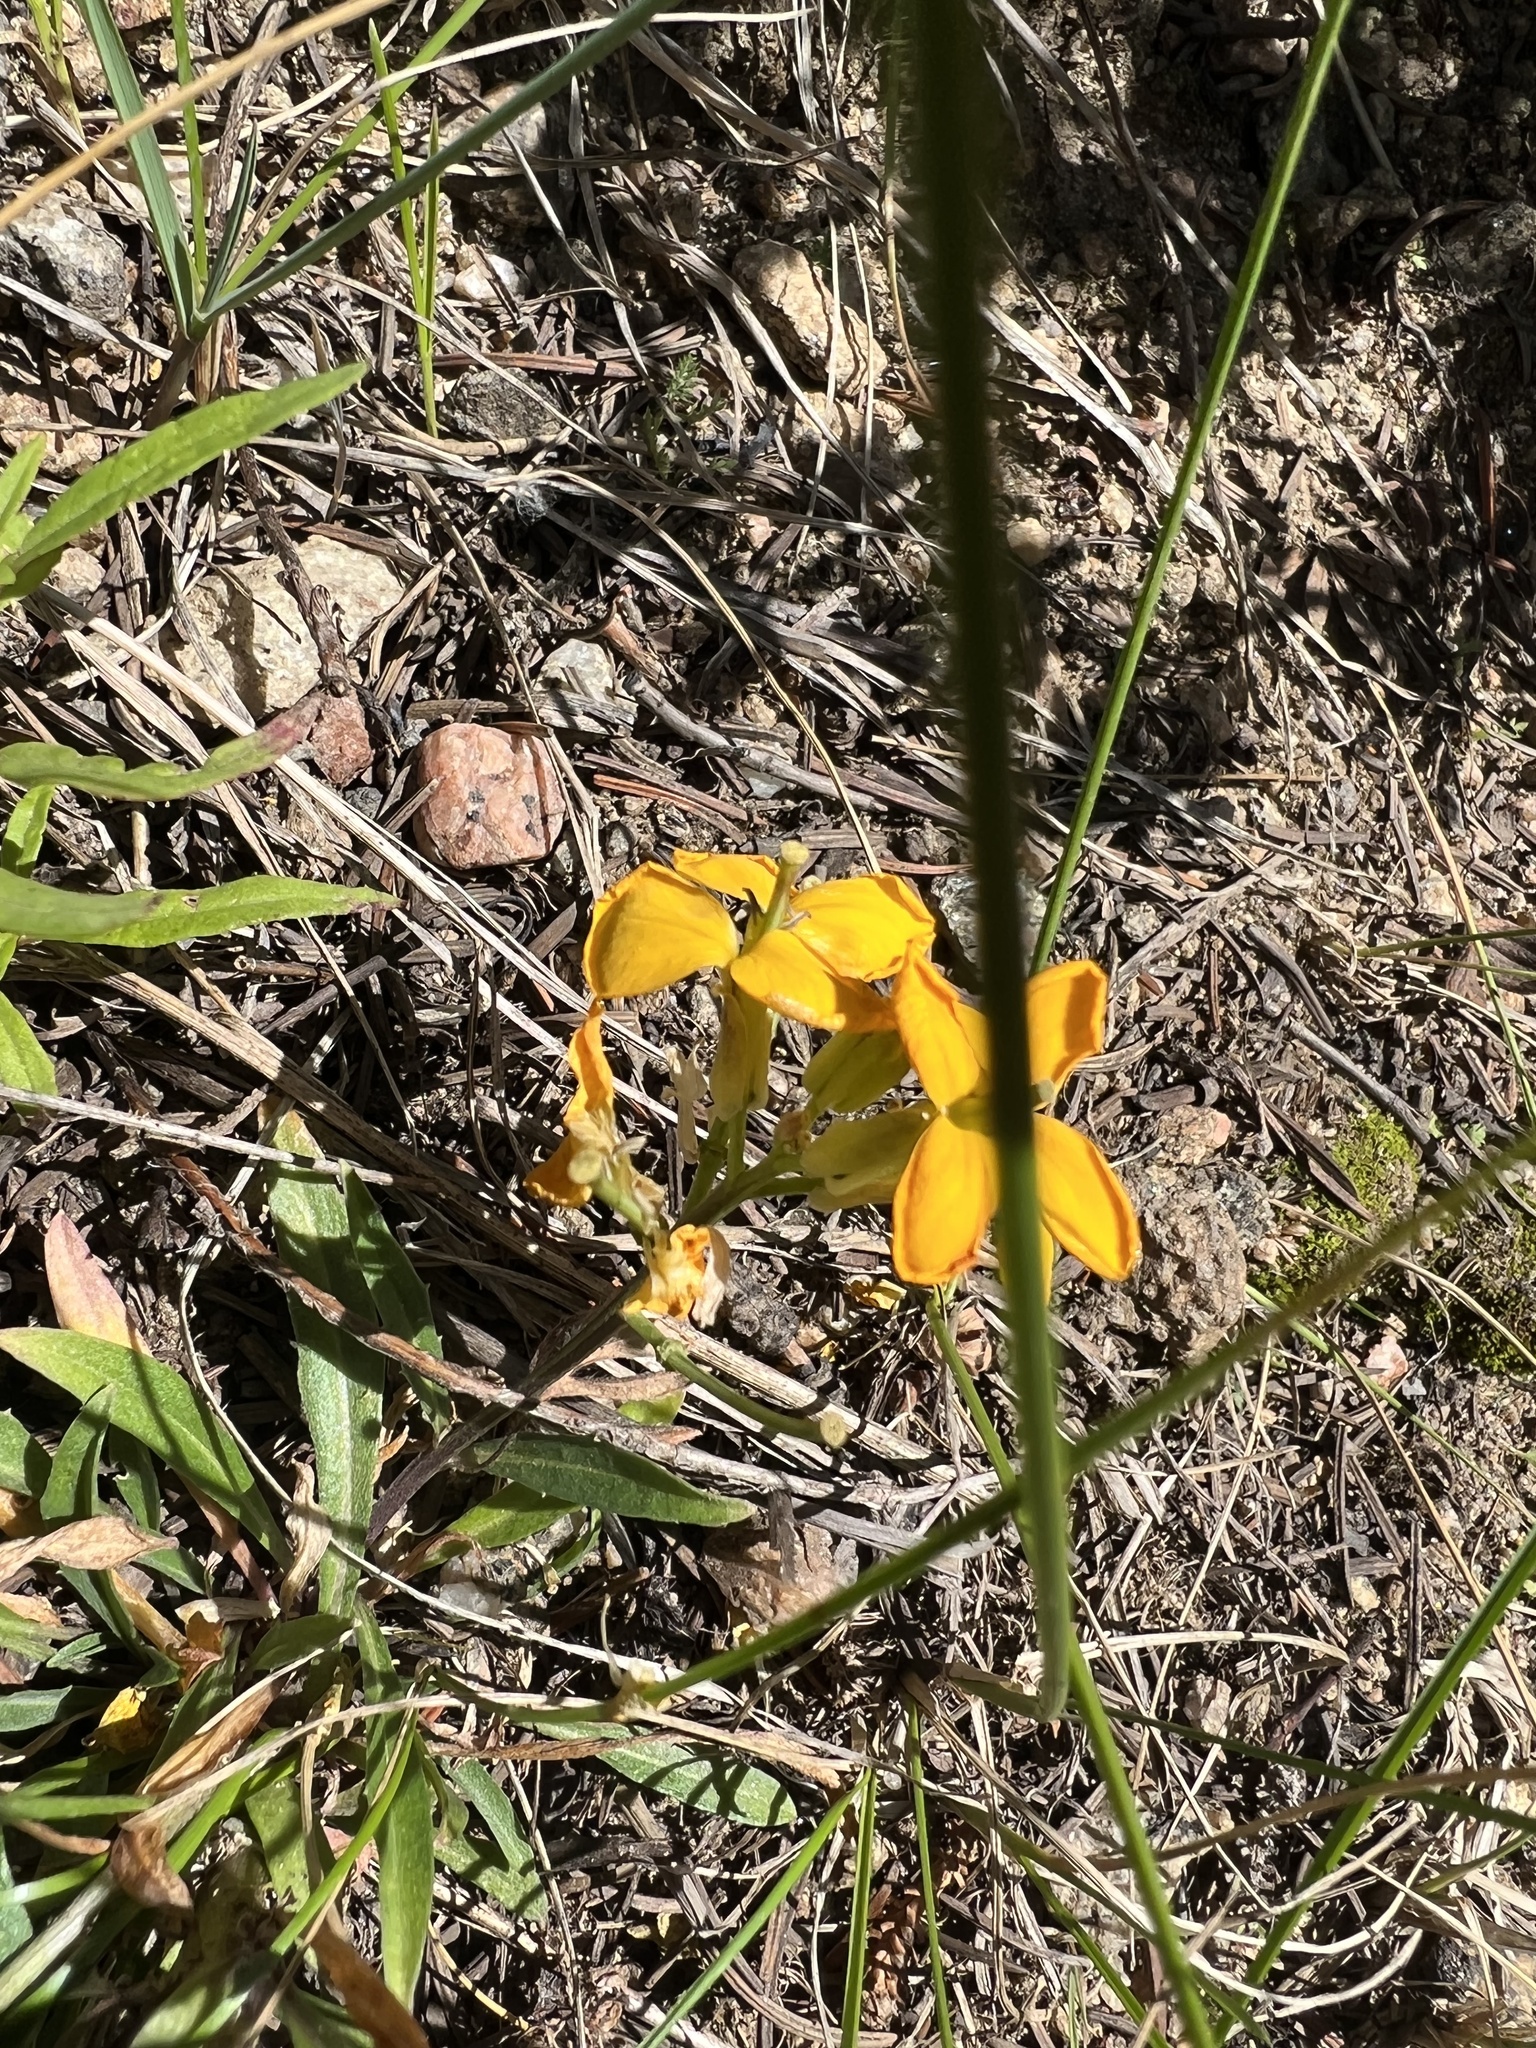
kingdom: Plantae
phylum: Tracheophyta
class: Magnoliopsida
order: Brassicales
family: Brassicaceae
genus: Erysimum
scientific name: Erysimum capitatum
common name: Western wallflower
